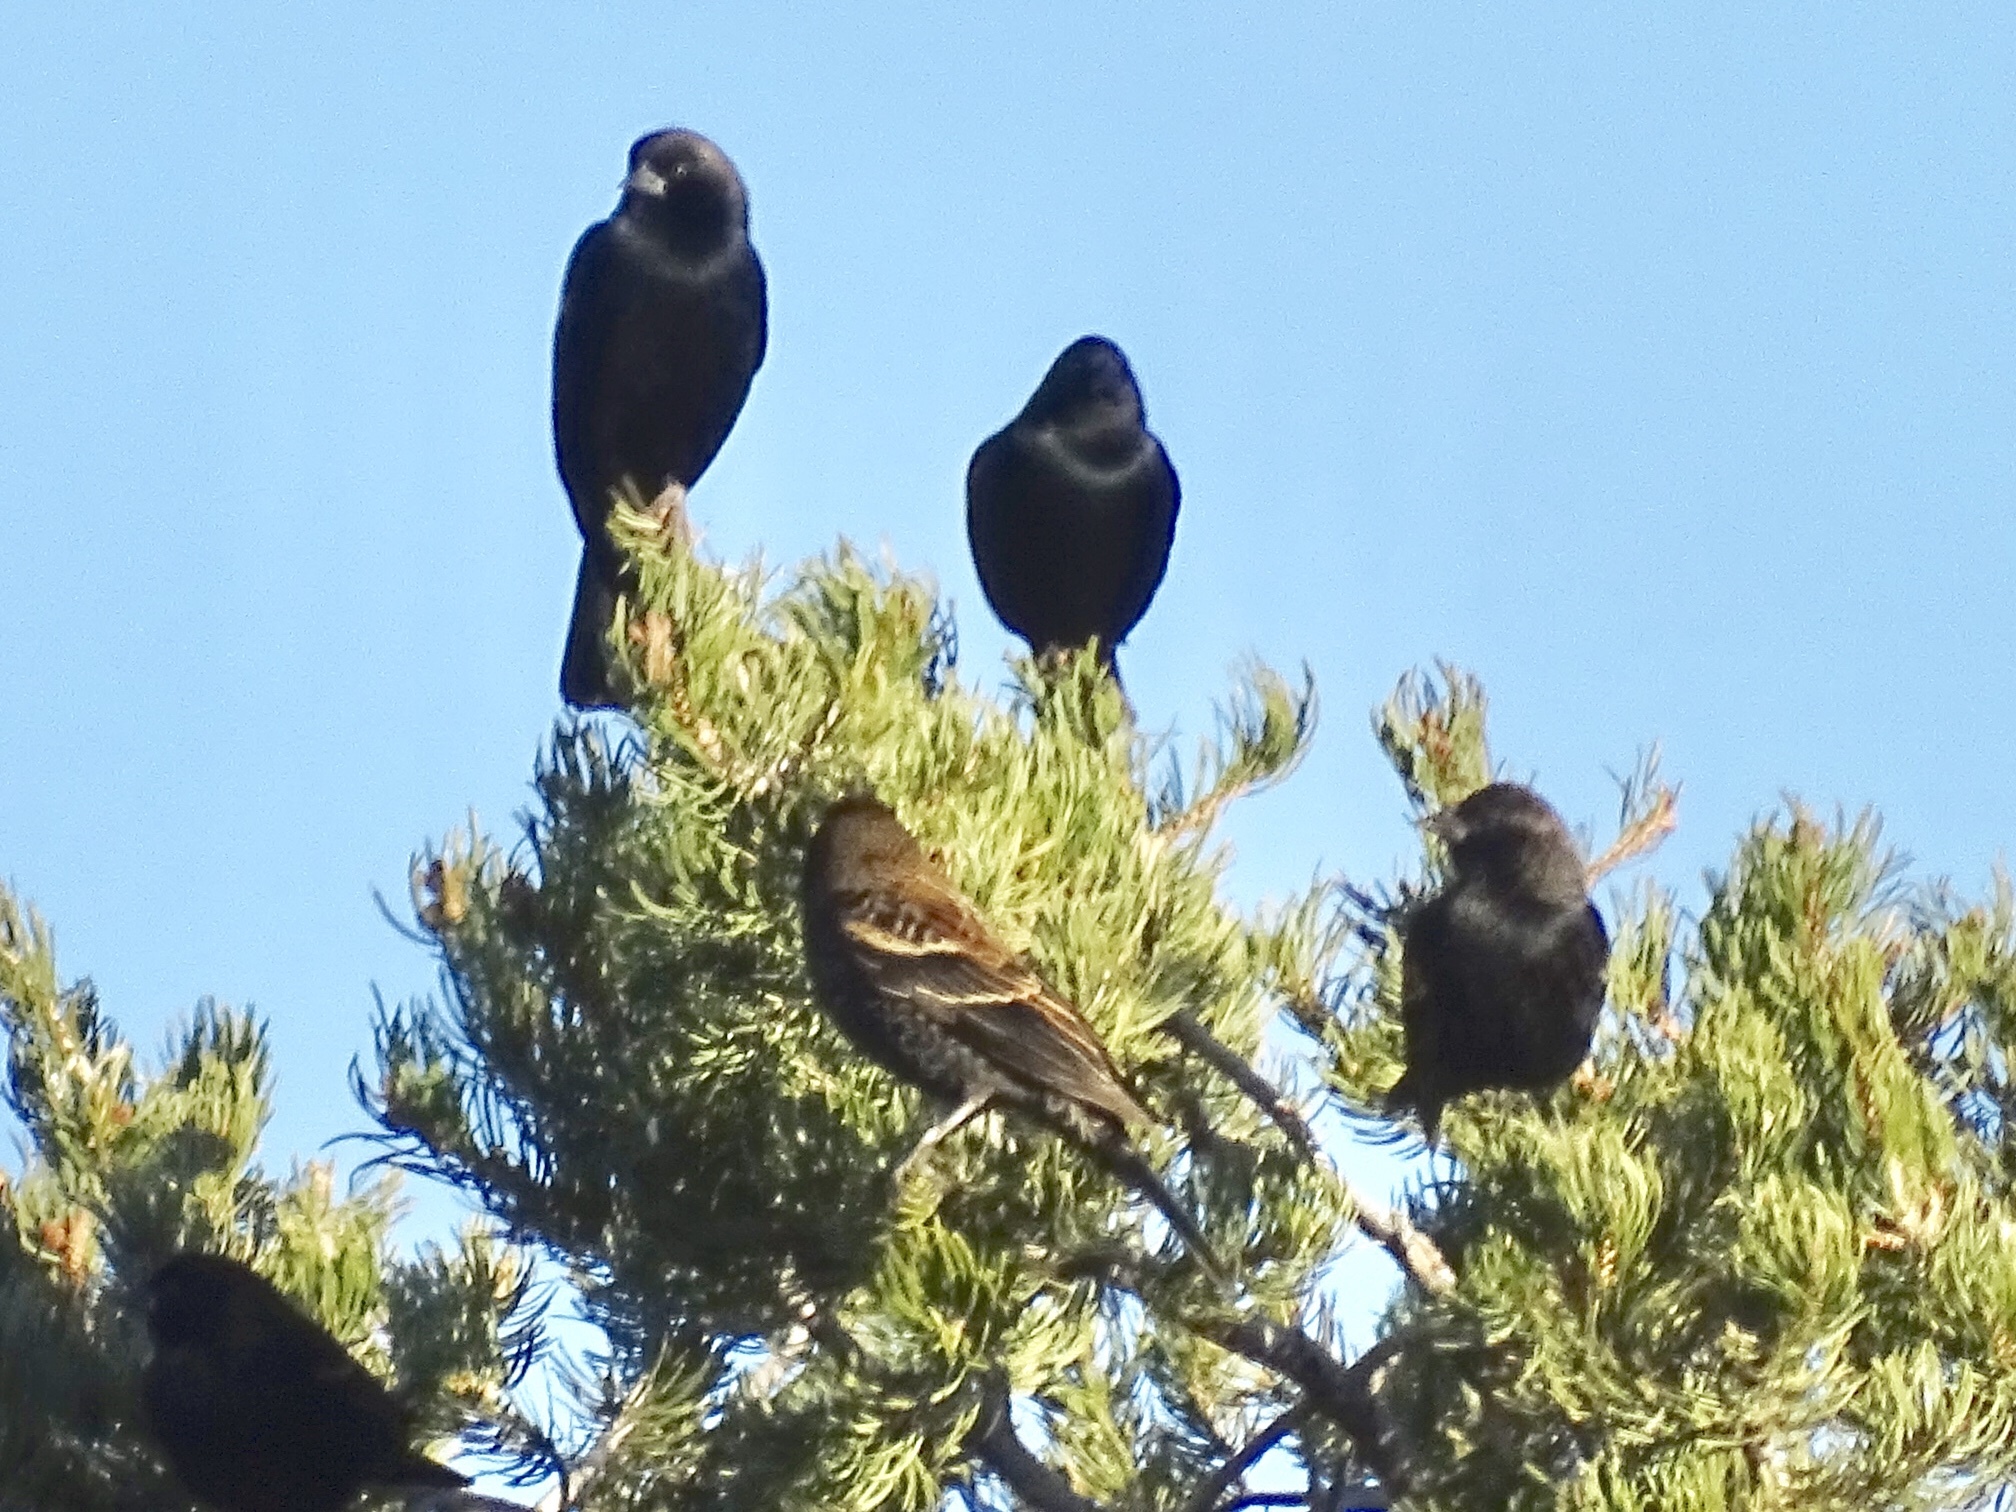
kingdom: Animalia
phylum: Chordata
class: Aves
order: Passeriformes
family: Icteridae
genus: Agelaius
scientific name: Agelaius phoeniceus
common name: Red-winged blackbird
